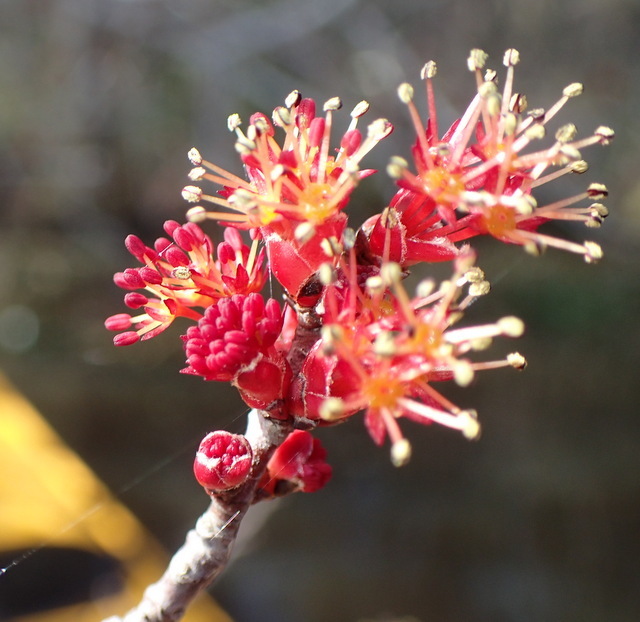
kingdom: Plantae
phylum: Tracheophyta
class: Magnoliopsida
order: Sapindales
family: Sapindaceae
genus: Acer
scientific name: Acer rubrum
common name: Red maple
